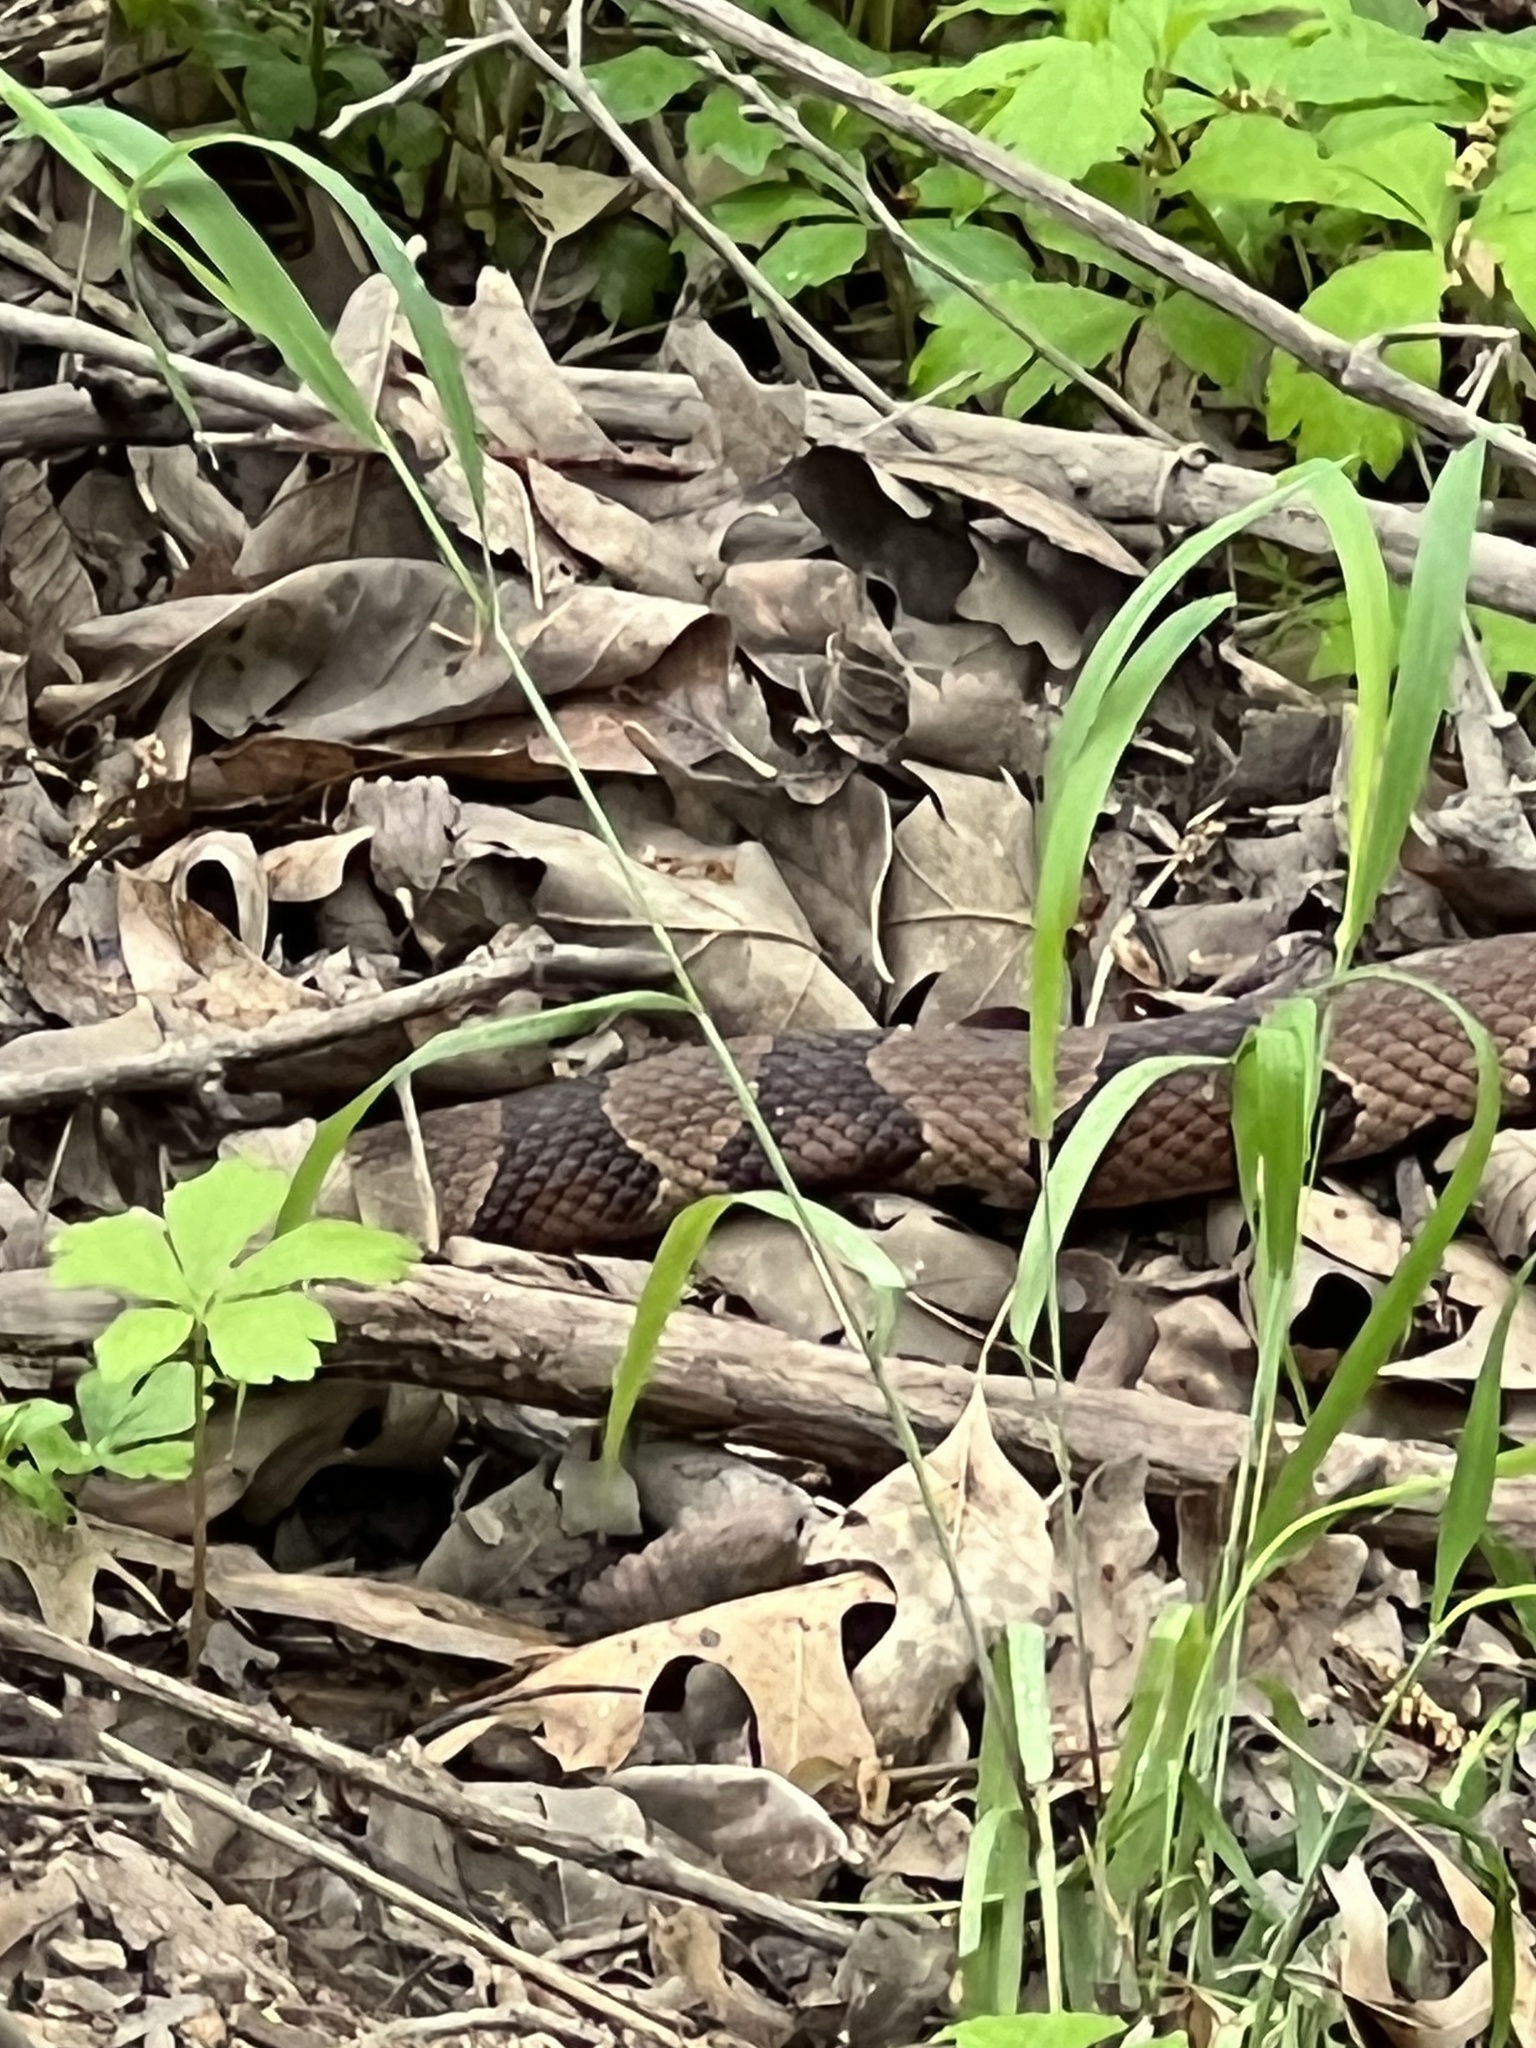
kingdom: Animalia
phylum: Chordata
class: Squamata
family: Viperidae
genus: Agkistrodon
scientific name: Agkistrodon contortrix
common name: Northern copperhead
